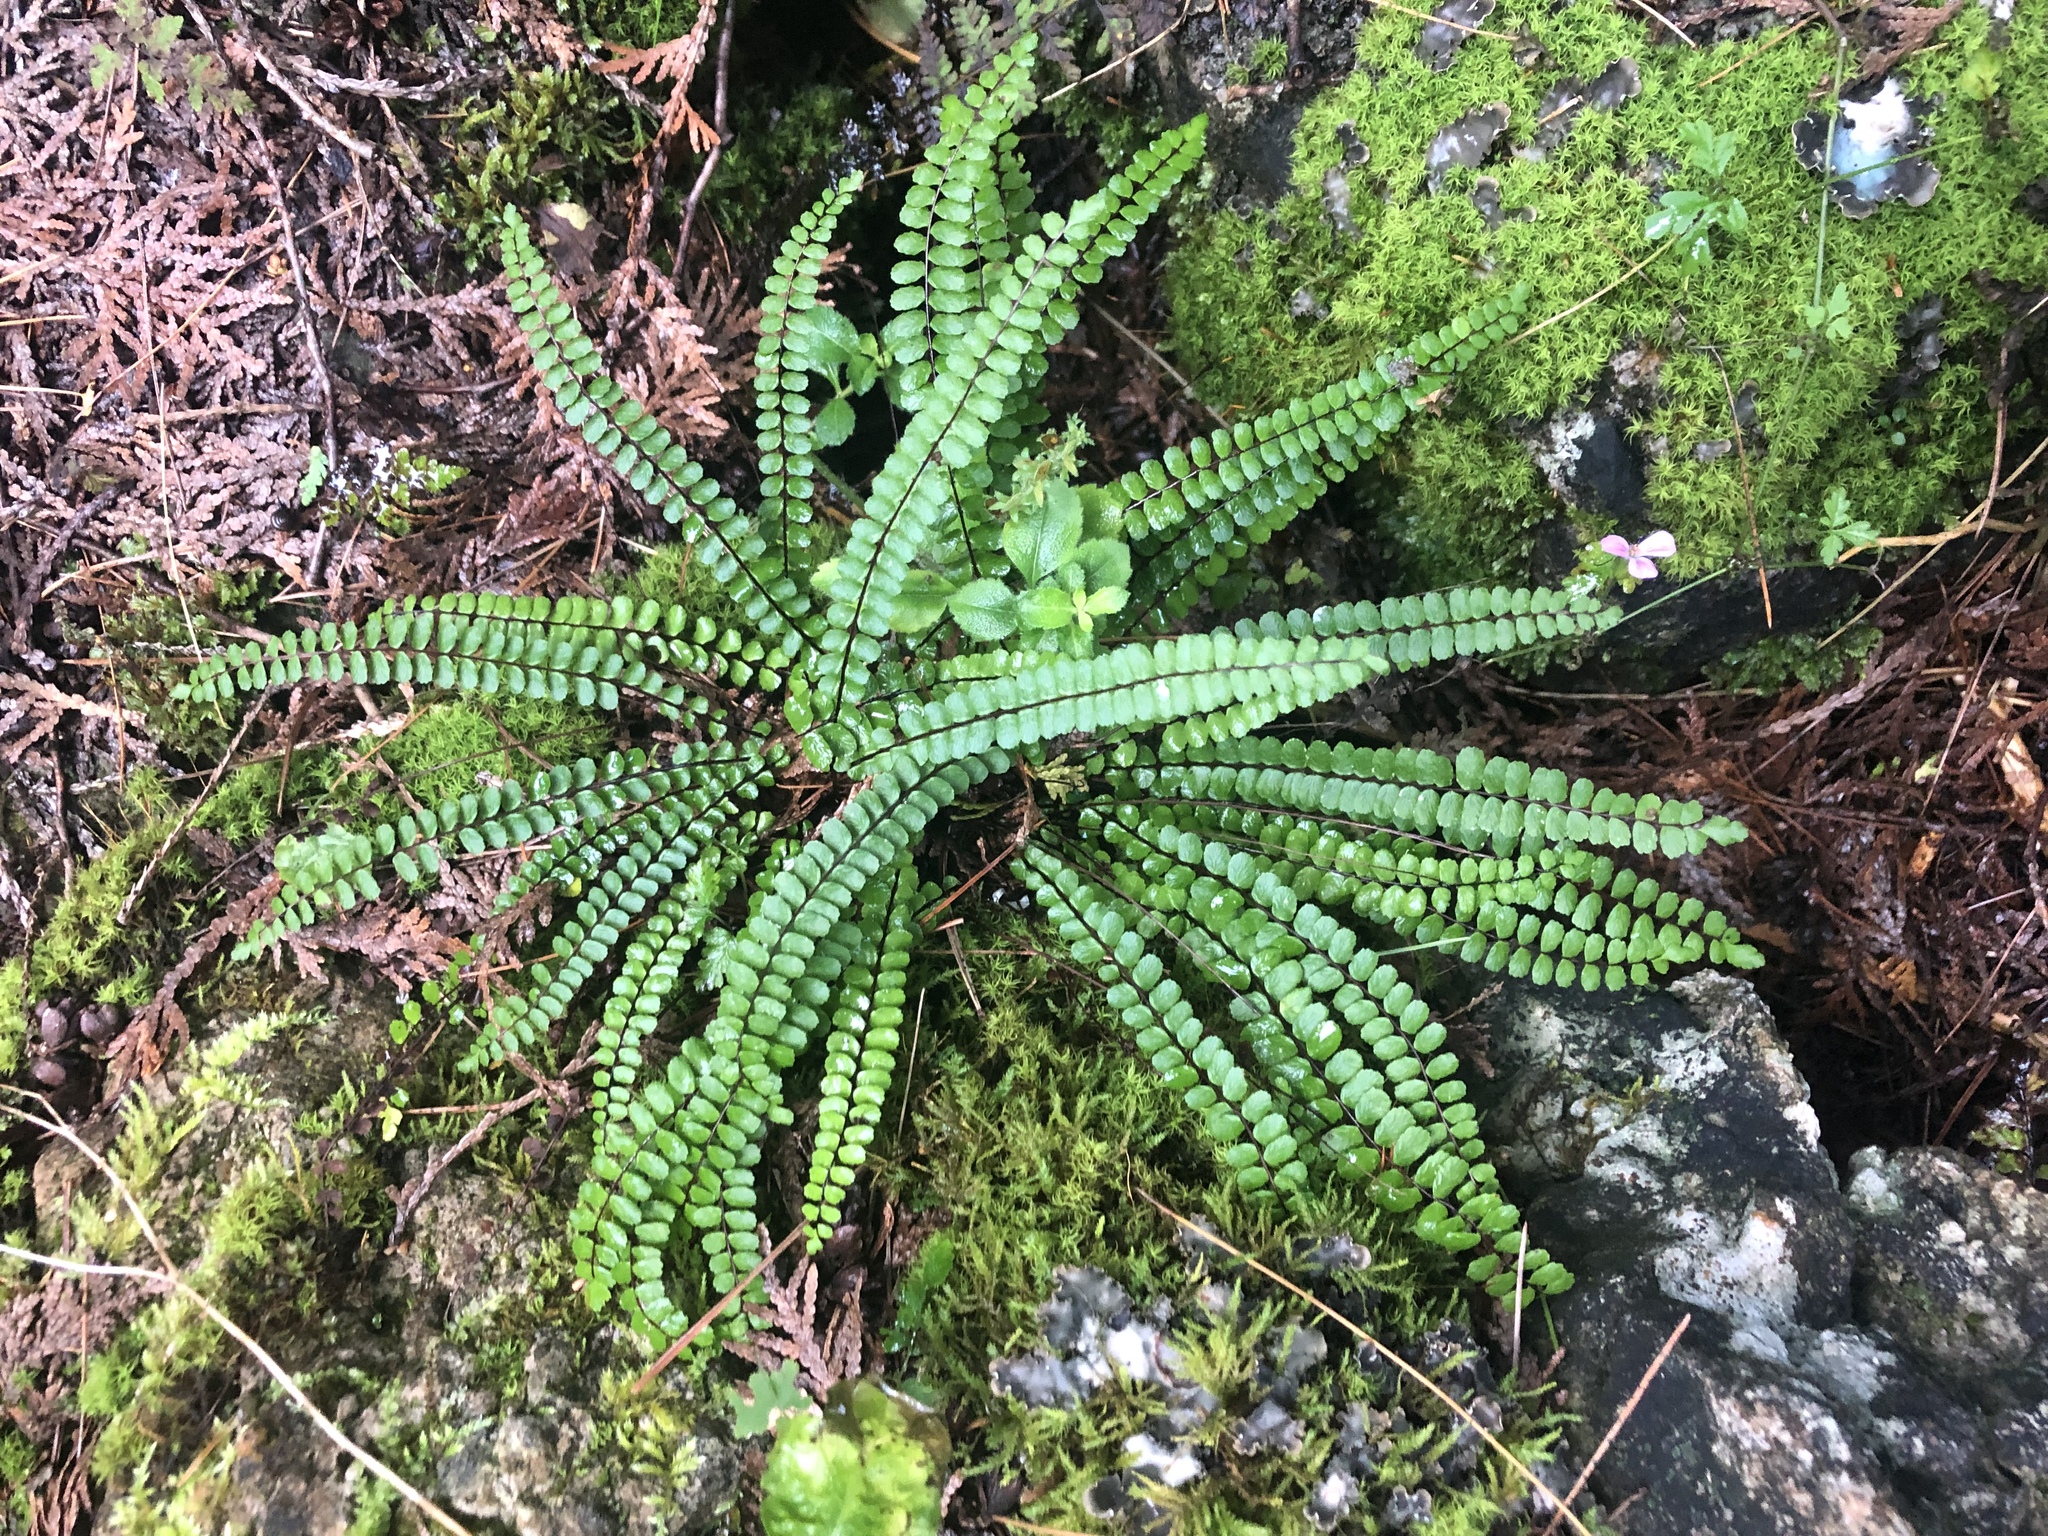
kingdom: Plantae
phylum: Tracheophyta
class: Polypodiopsida
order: Polypodiales
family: Aspleniaceae
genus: Asplenium
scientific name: Asplenium trichomanes
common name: Maidenhair spleenwort
